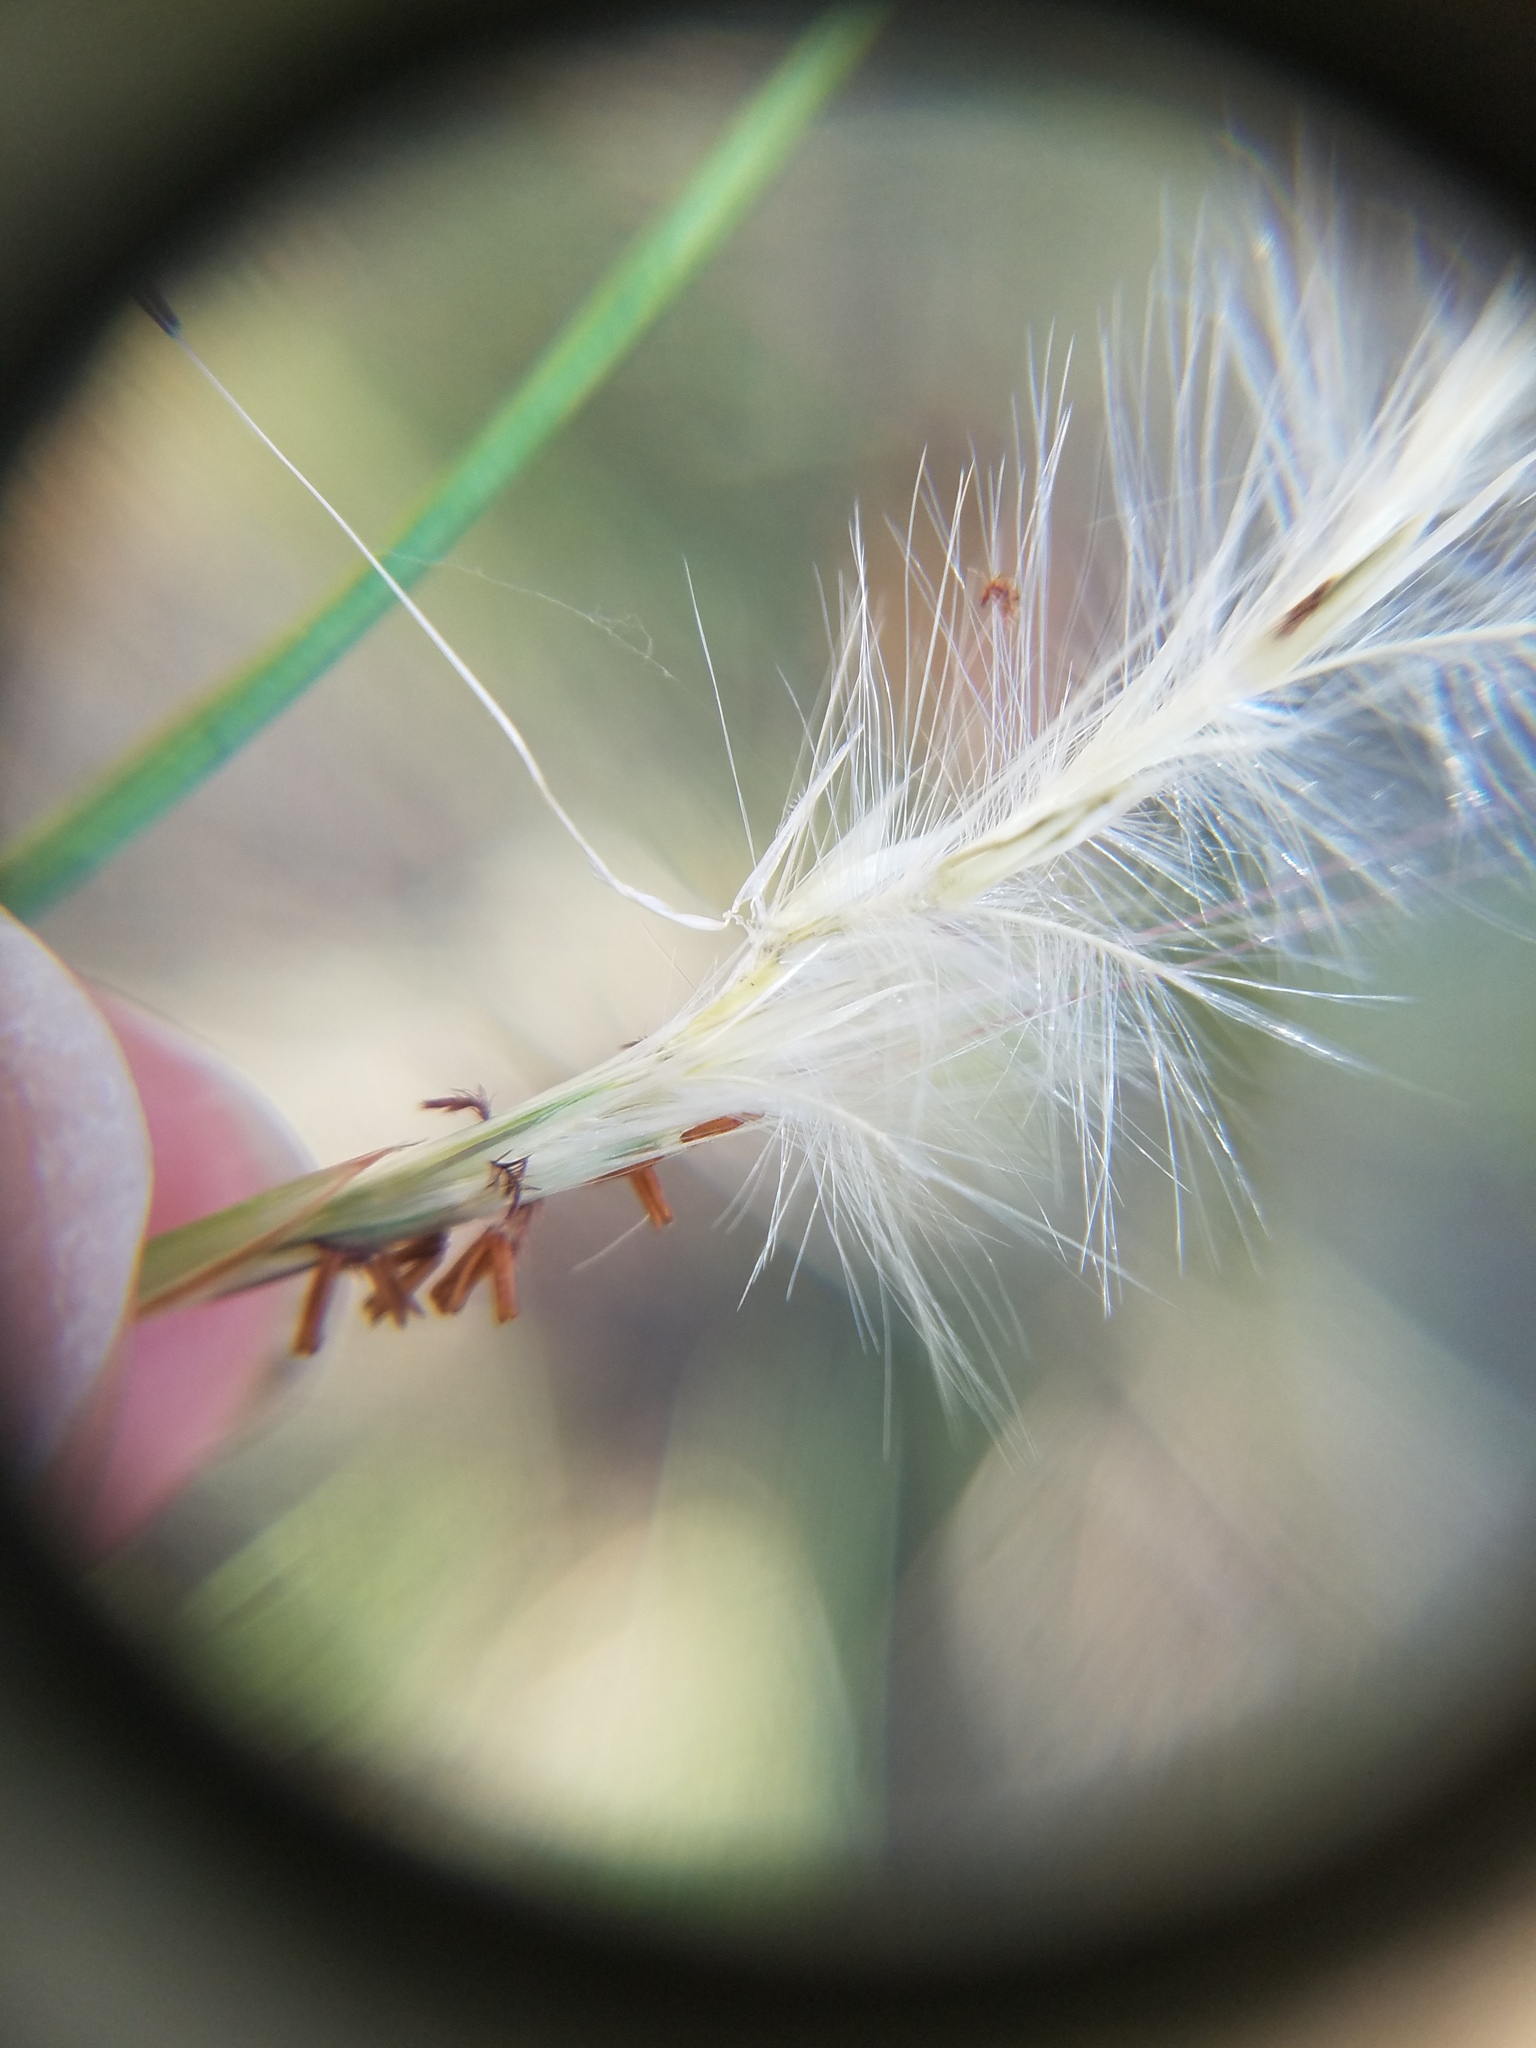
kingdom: Plantae
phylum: Tracheophyta
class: Liliopsida
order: Poales
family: Poaceae
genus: Andropogon
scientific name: Andropogon ternarius
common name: Split bluestem
